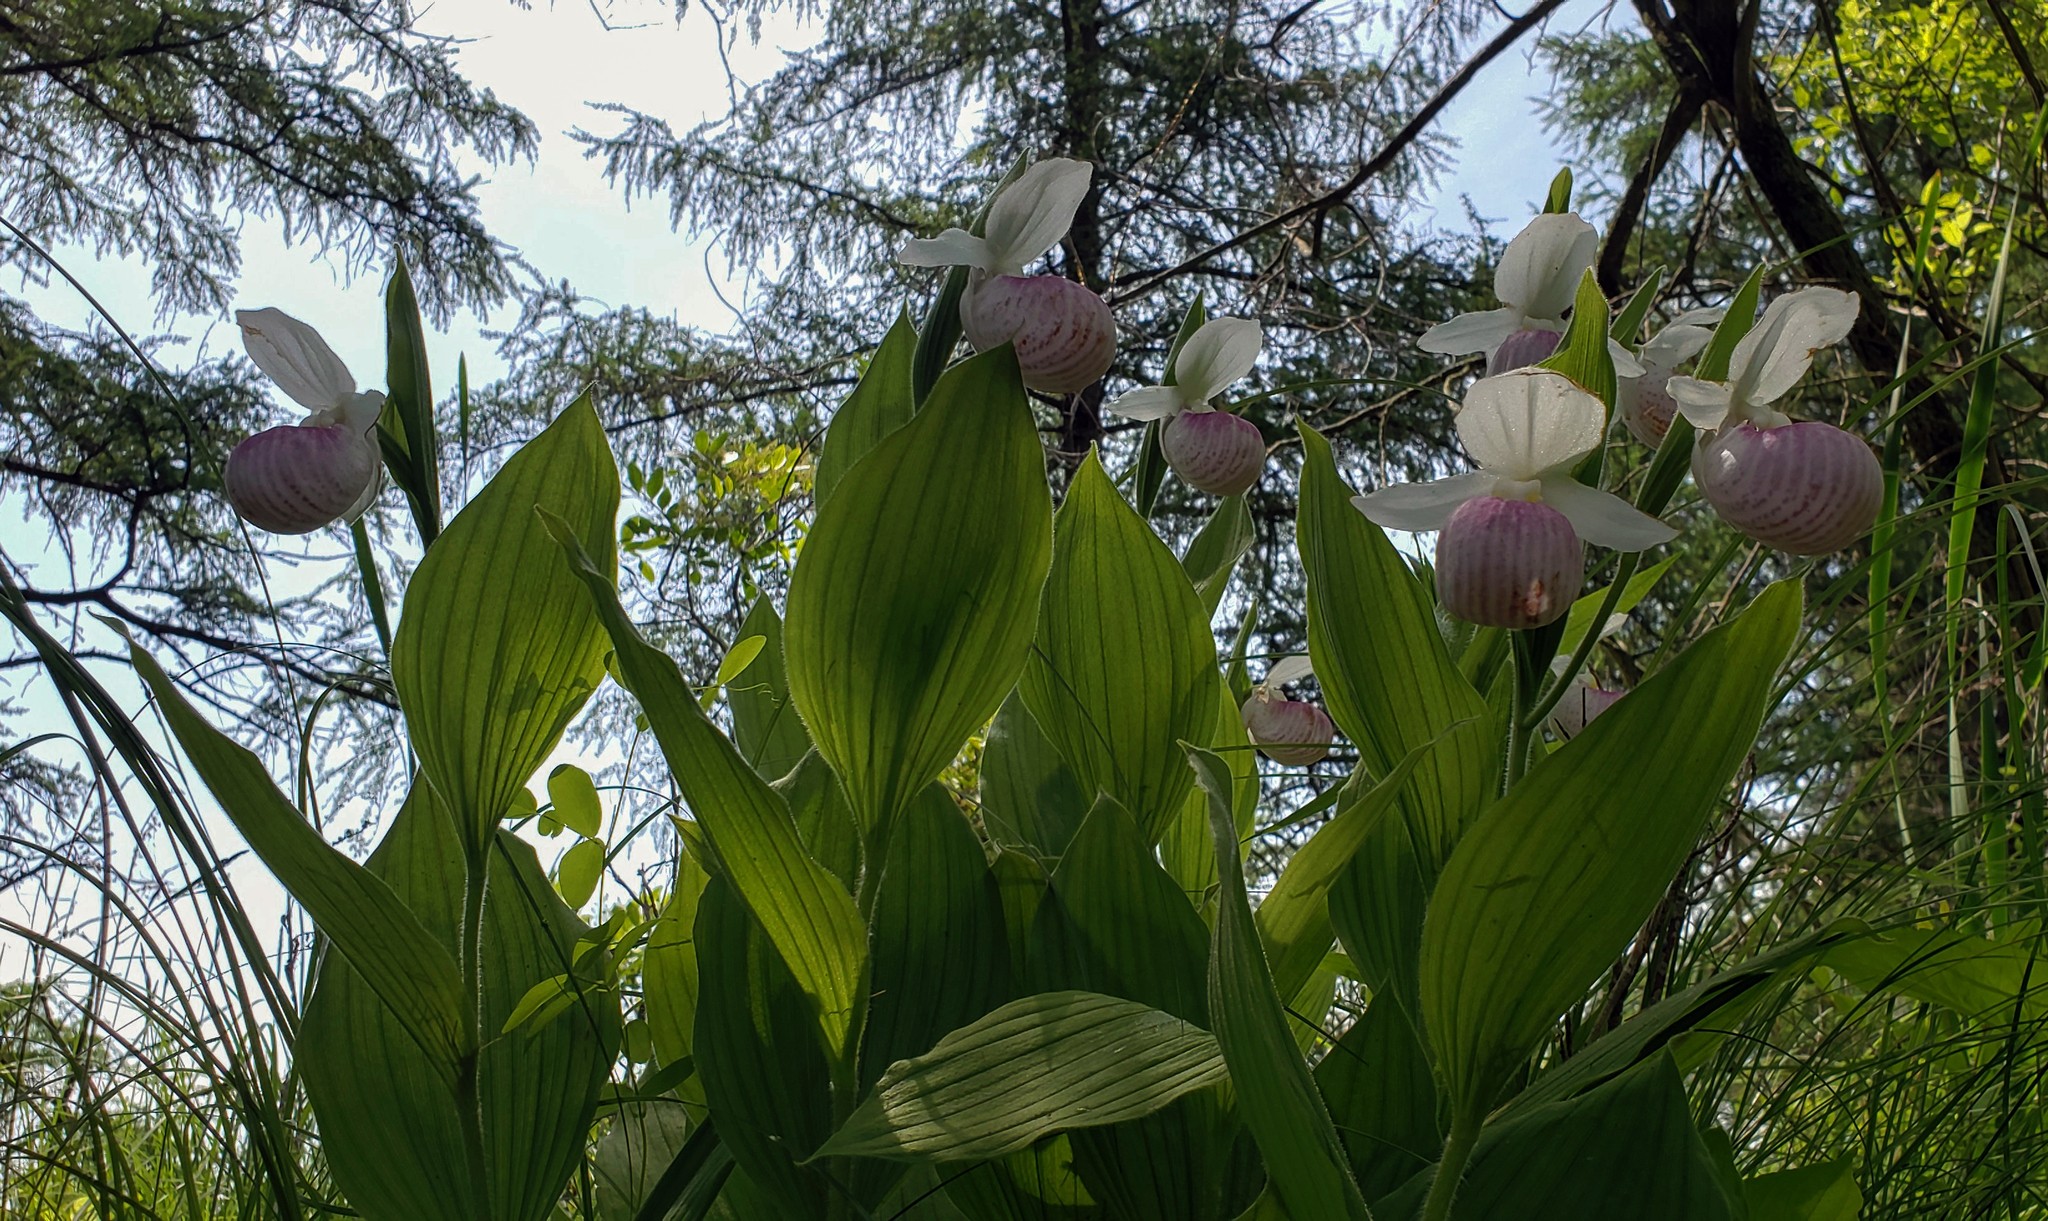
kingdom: Plantae
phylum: Tracheophyta
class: Liliopsida
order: Asparagales
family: Orchidaceae
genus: Cypripedium
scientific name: Cypripedium reginae
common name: Queen lady's-slipper
